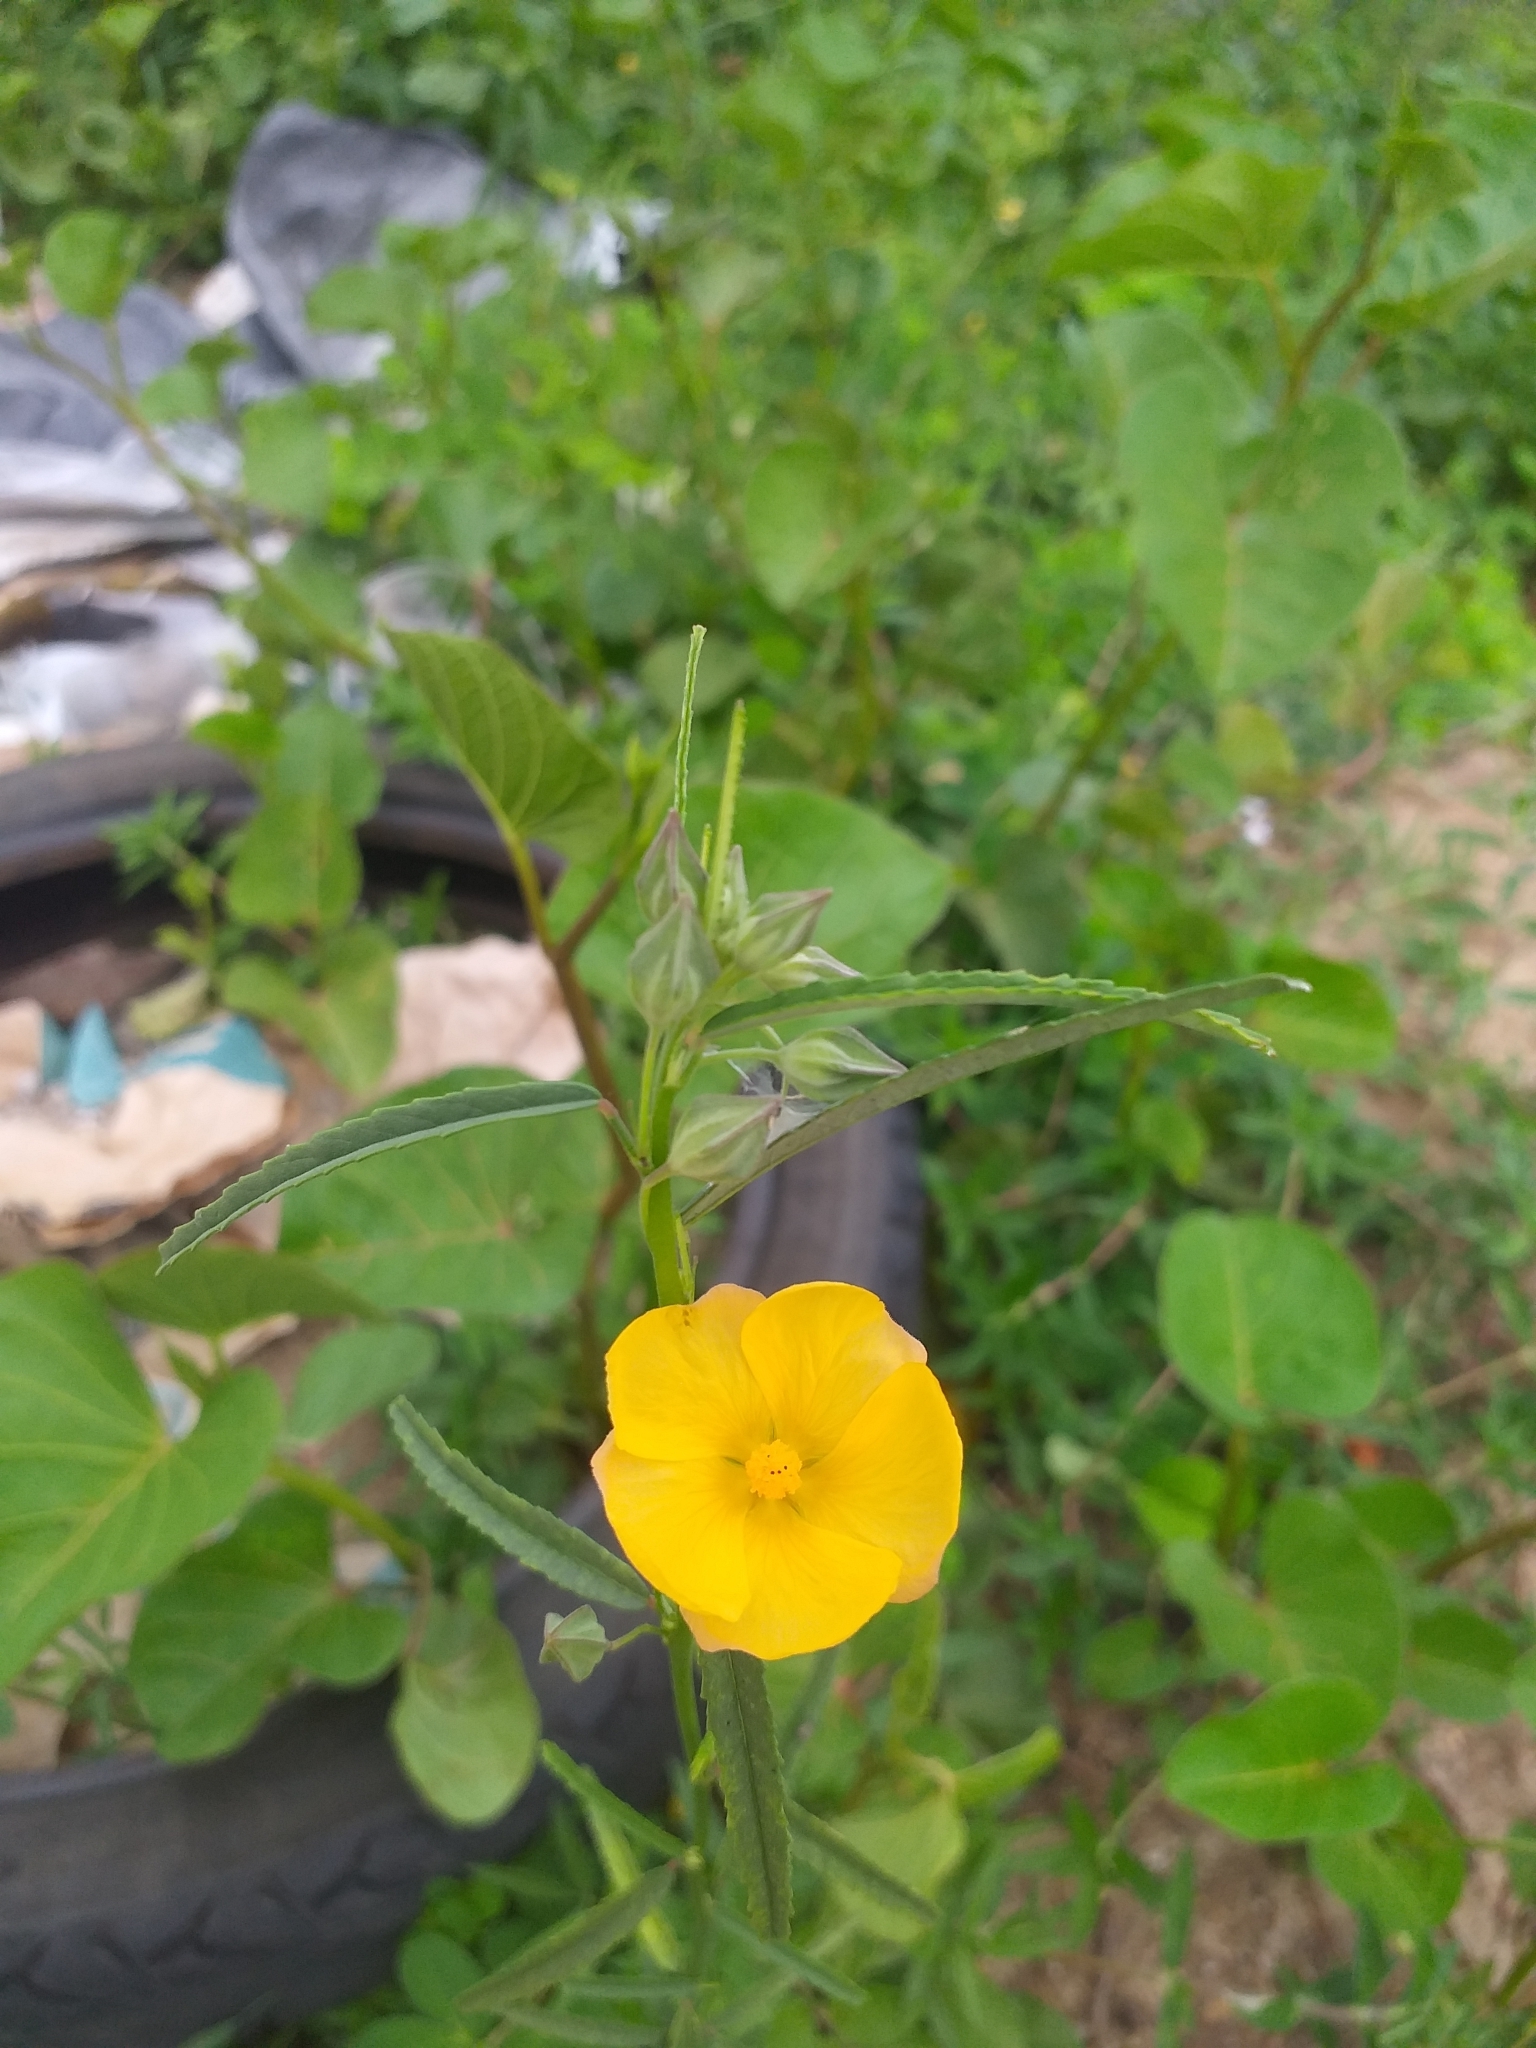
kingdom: Plantae
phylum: Tracheophyta
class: Magnoliopsida
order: Malvales
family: Malvaceae
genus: Sida
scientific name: Sida angustissima
